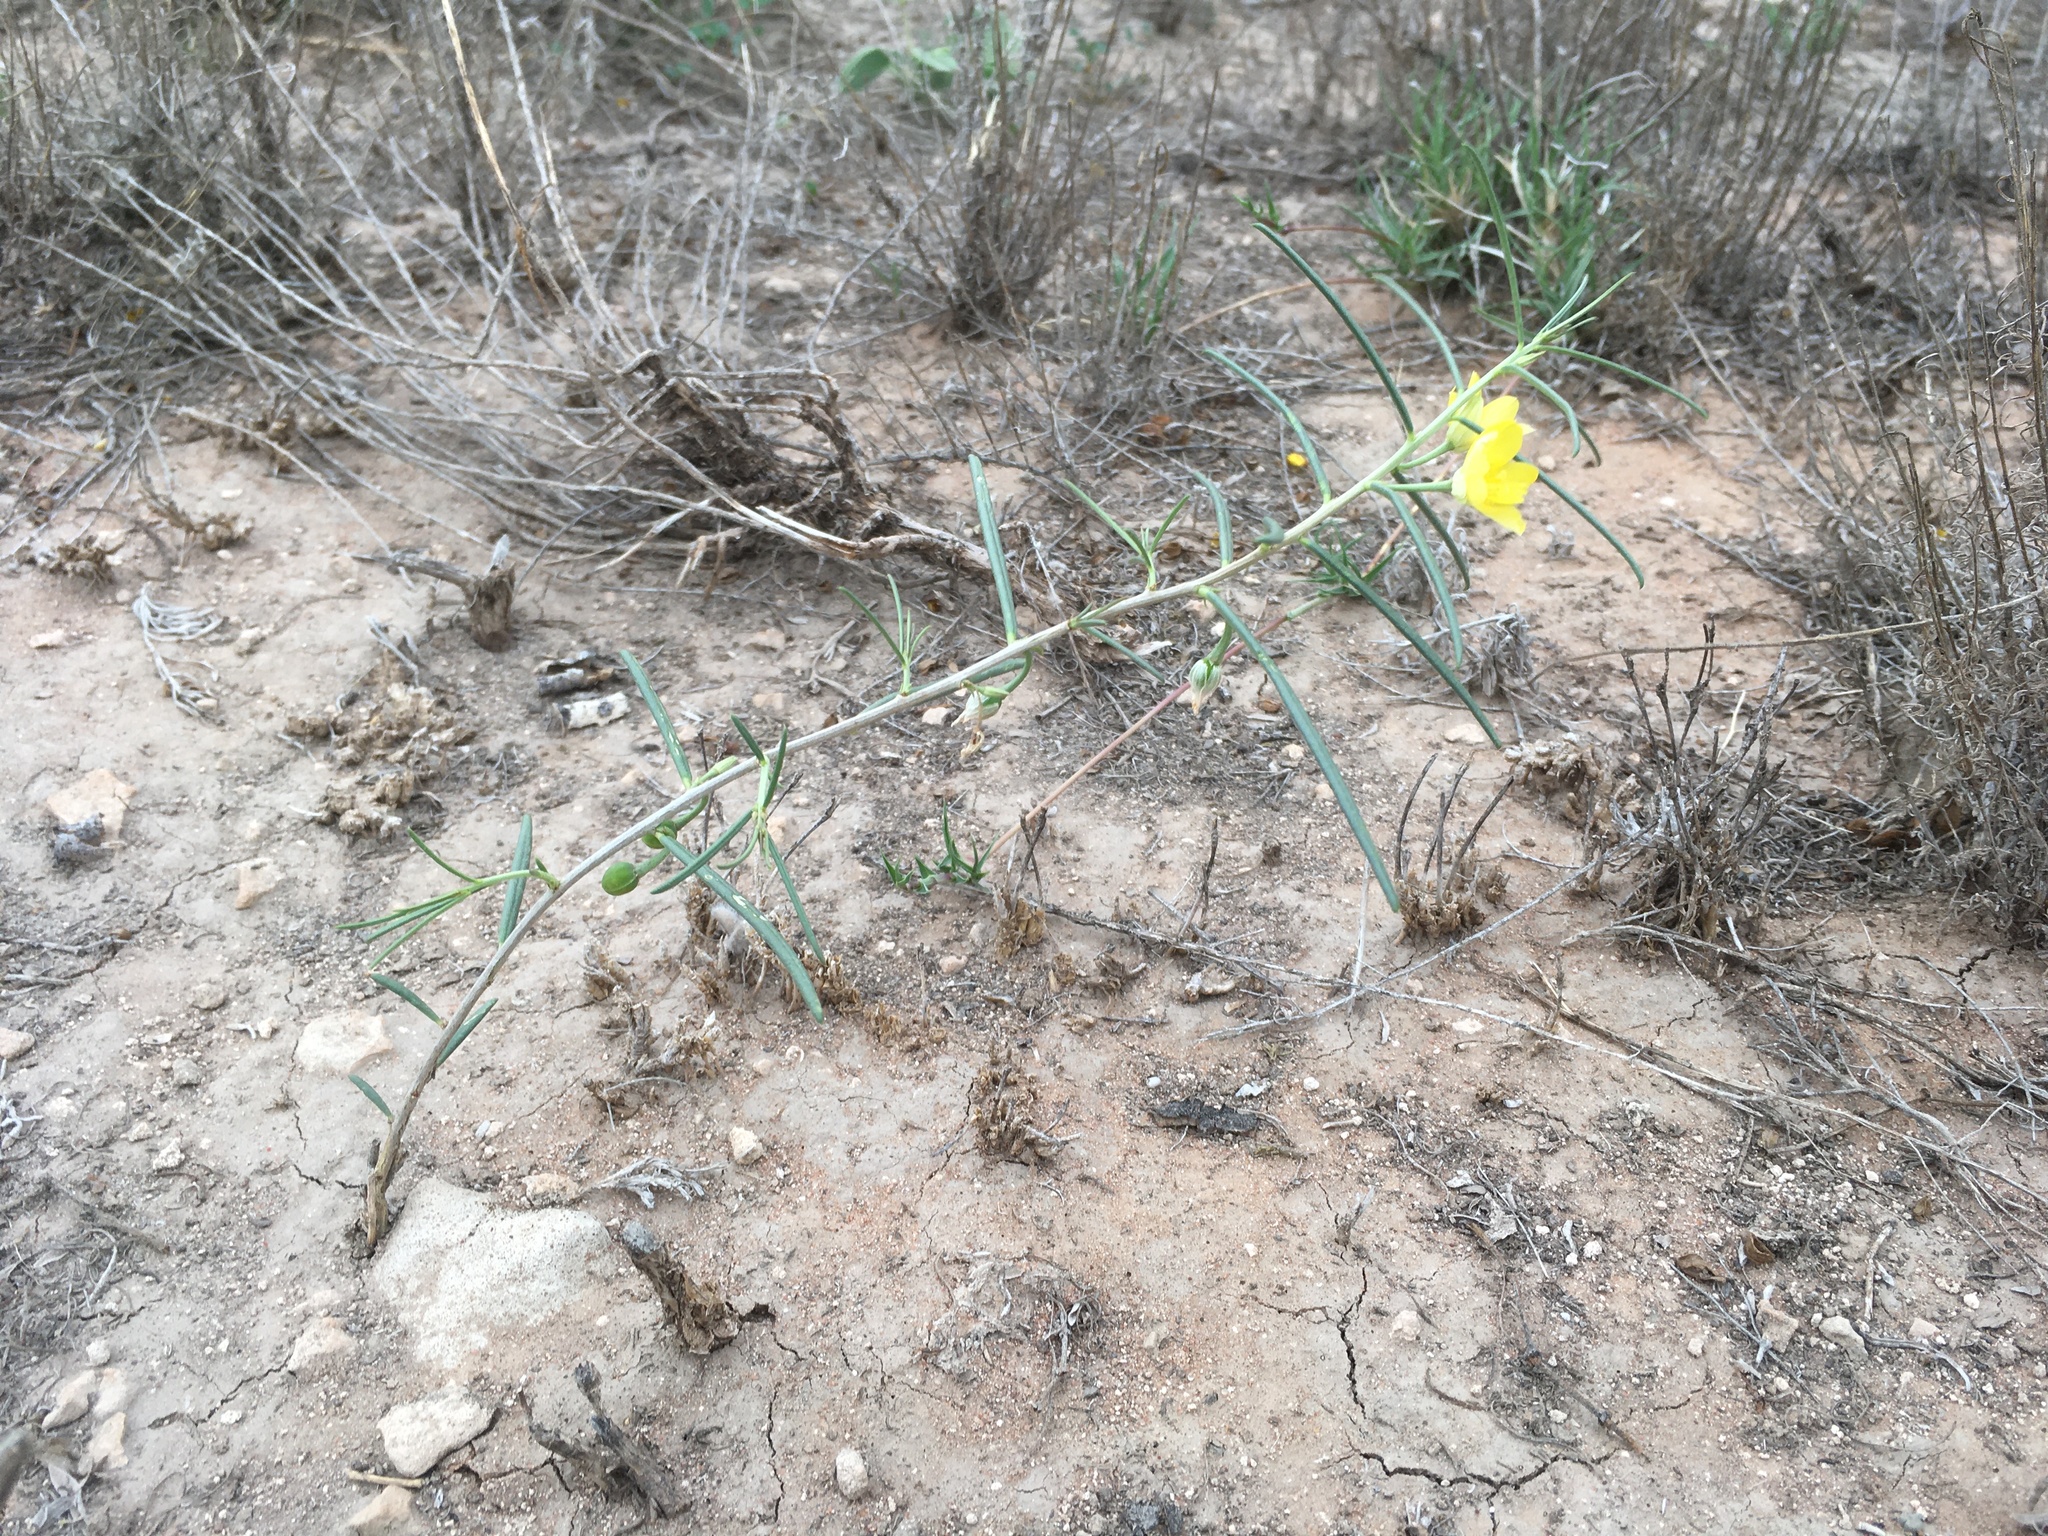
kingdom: Plantae
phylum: Tracheophyta
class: Magnoliopsida
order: Caryophyllales
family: Talinaceae
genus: Talinum
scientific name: Talinum polygaloides
